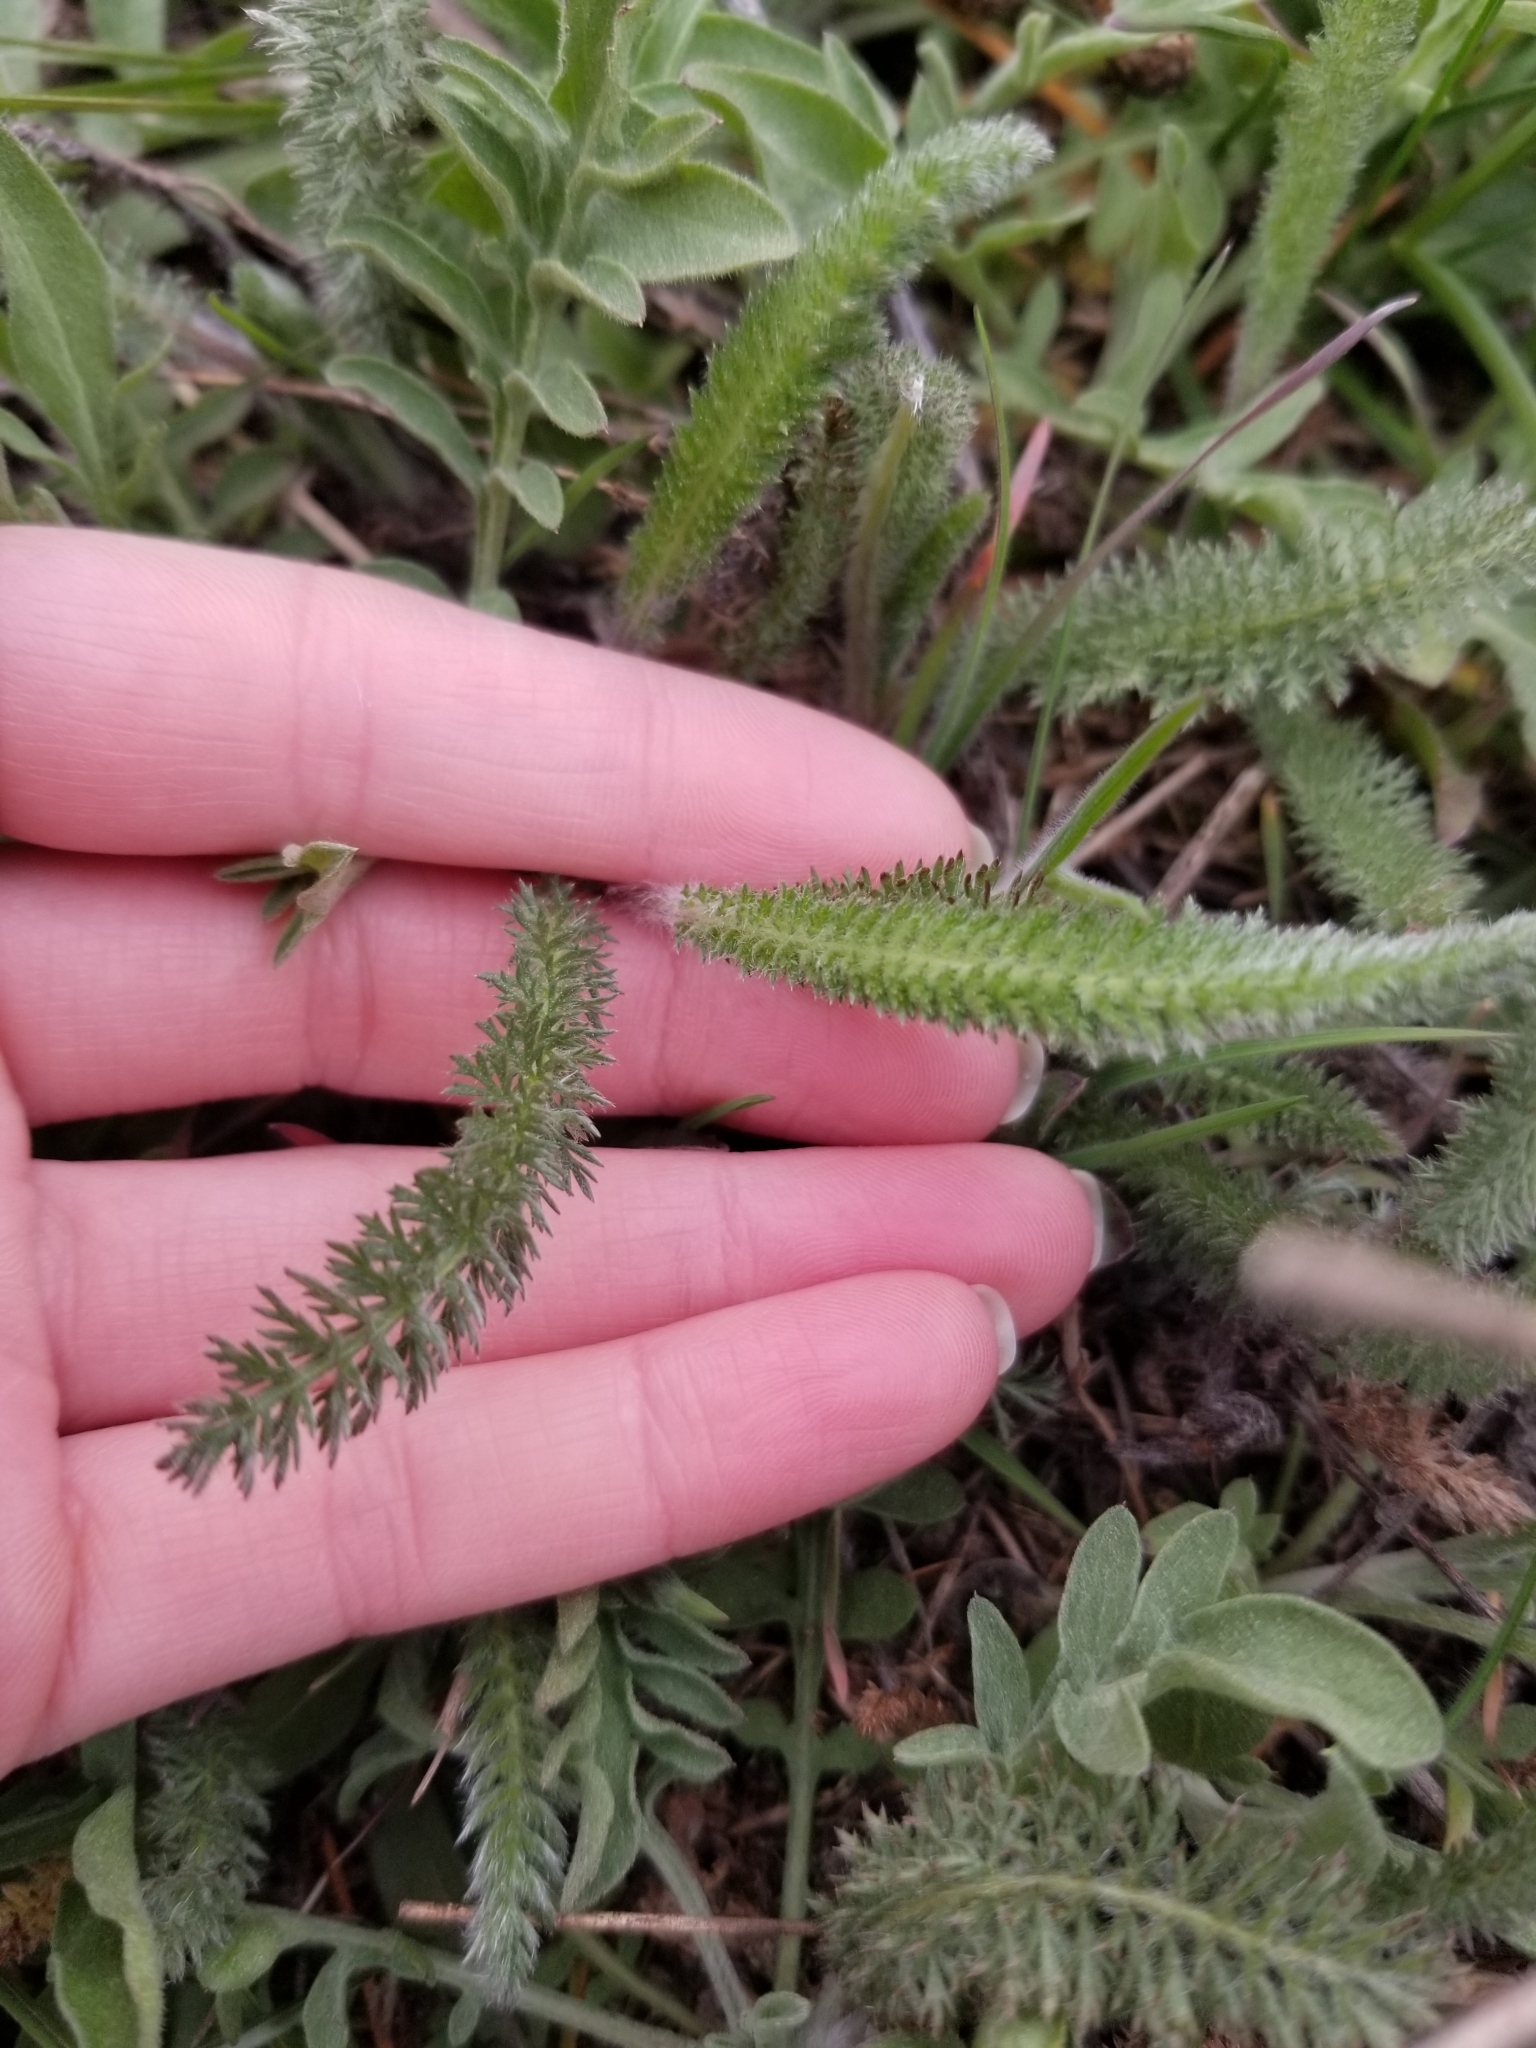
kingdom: Plantae
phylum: Tracheophyta
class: Magnoliopsida
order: Asterales
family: Asteraceae
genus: Achillea
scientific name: Achillea millefolium
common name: Yarrow
